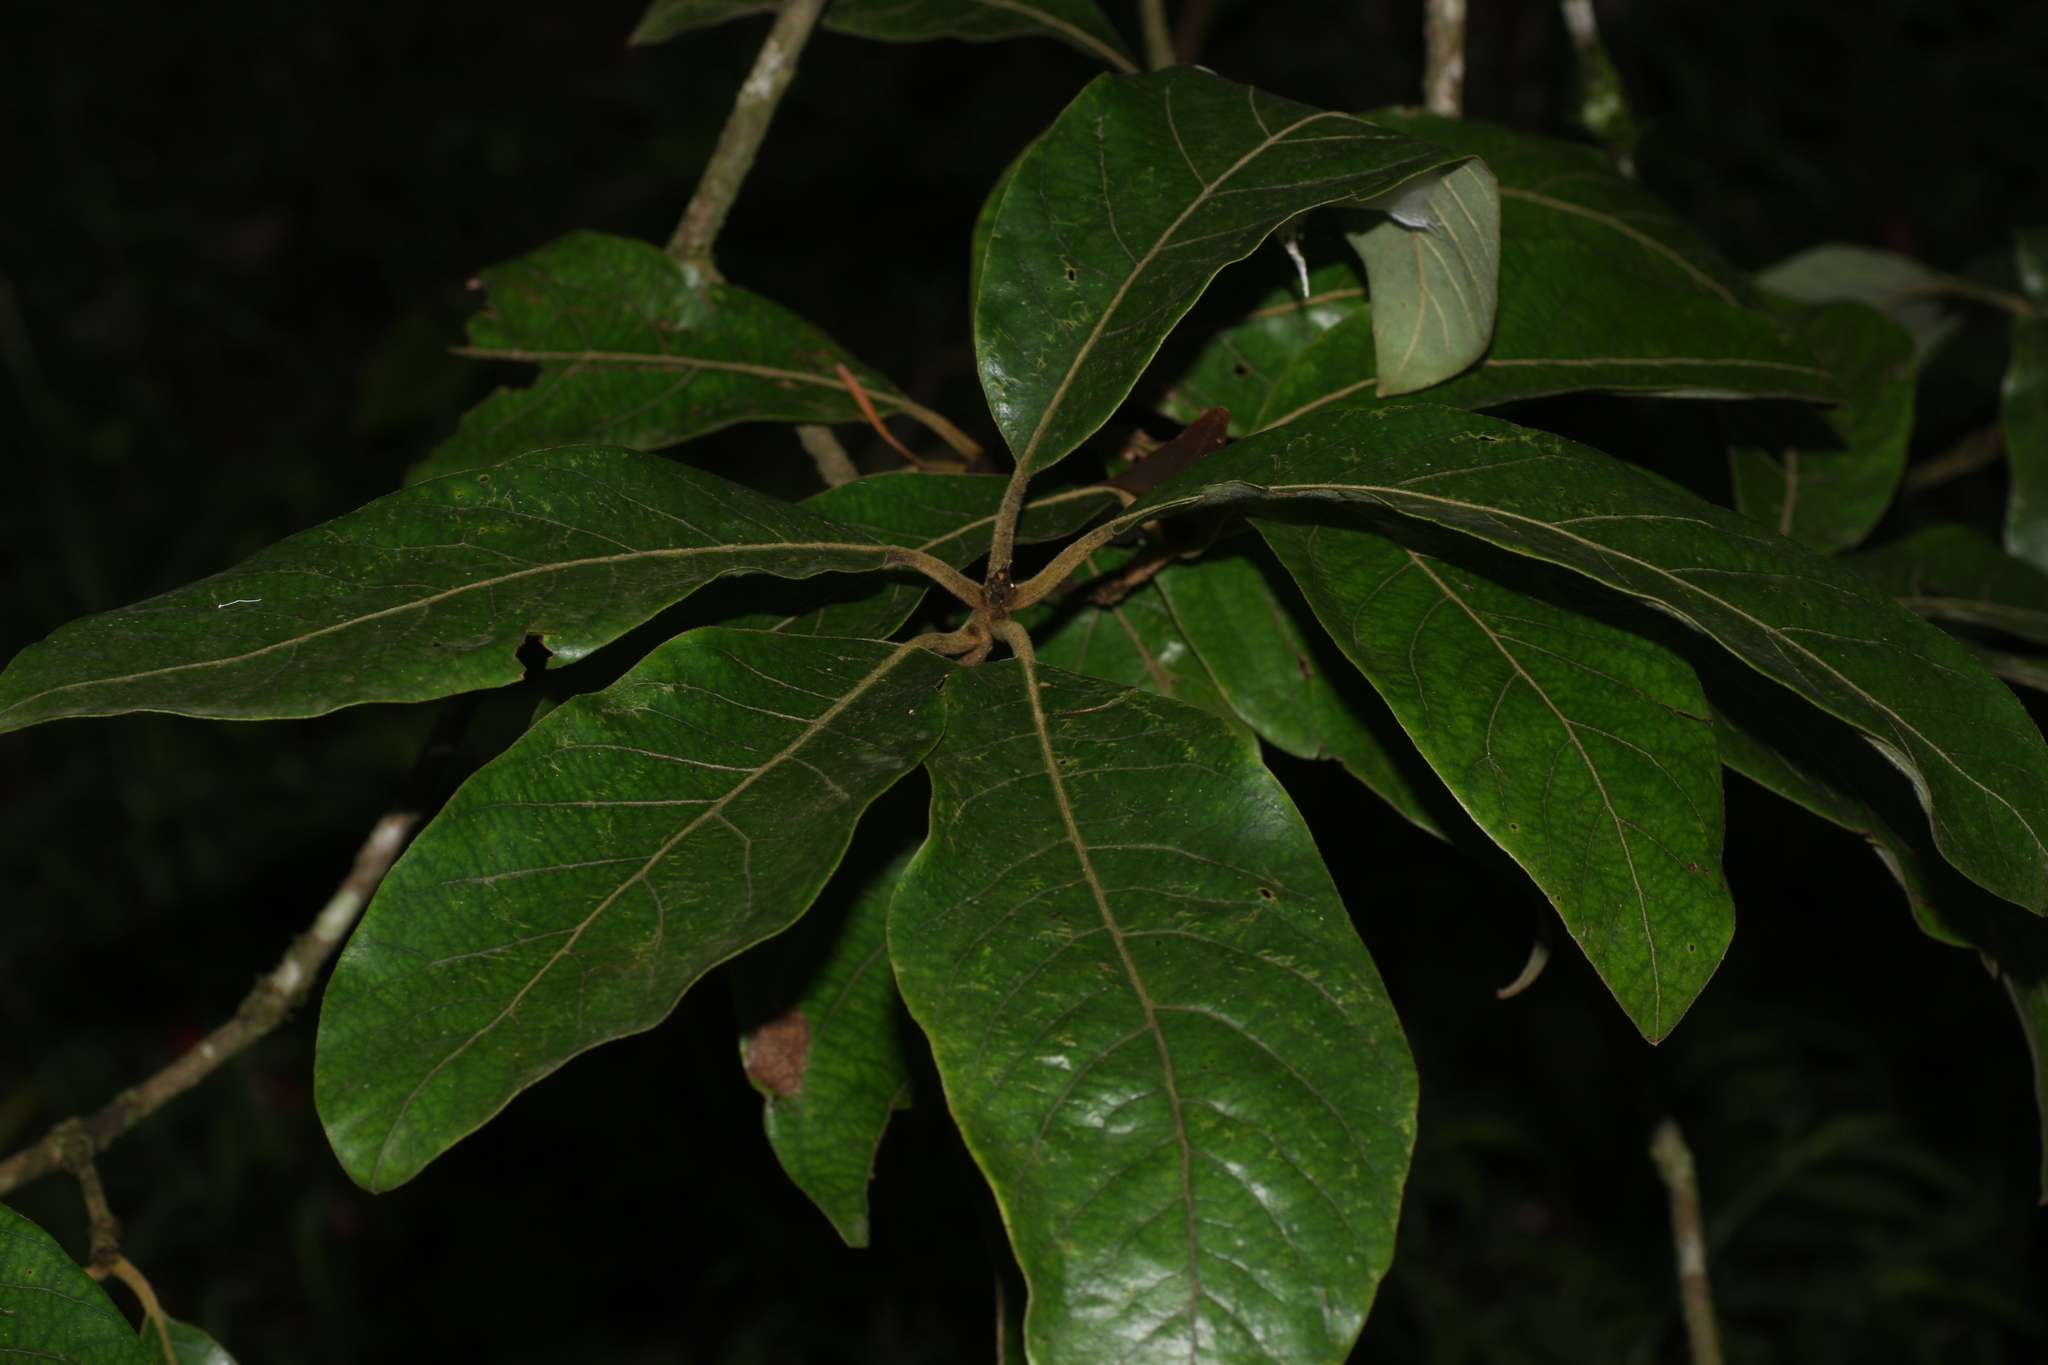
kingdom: Plantae
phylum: Tracheophyta
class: Magnoliopsida
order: Laurales
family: Lauraceae
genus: Litsea
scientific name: Litsea ligustrina
